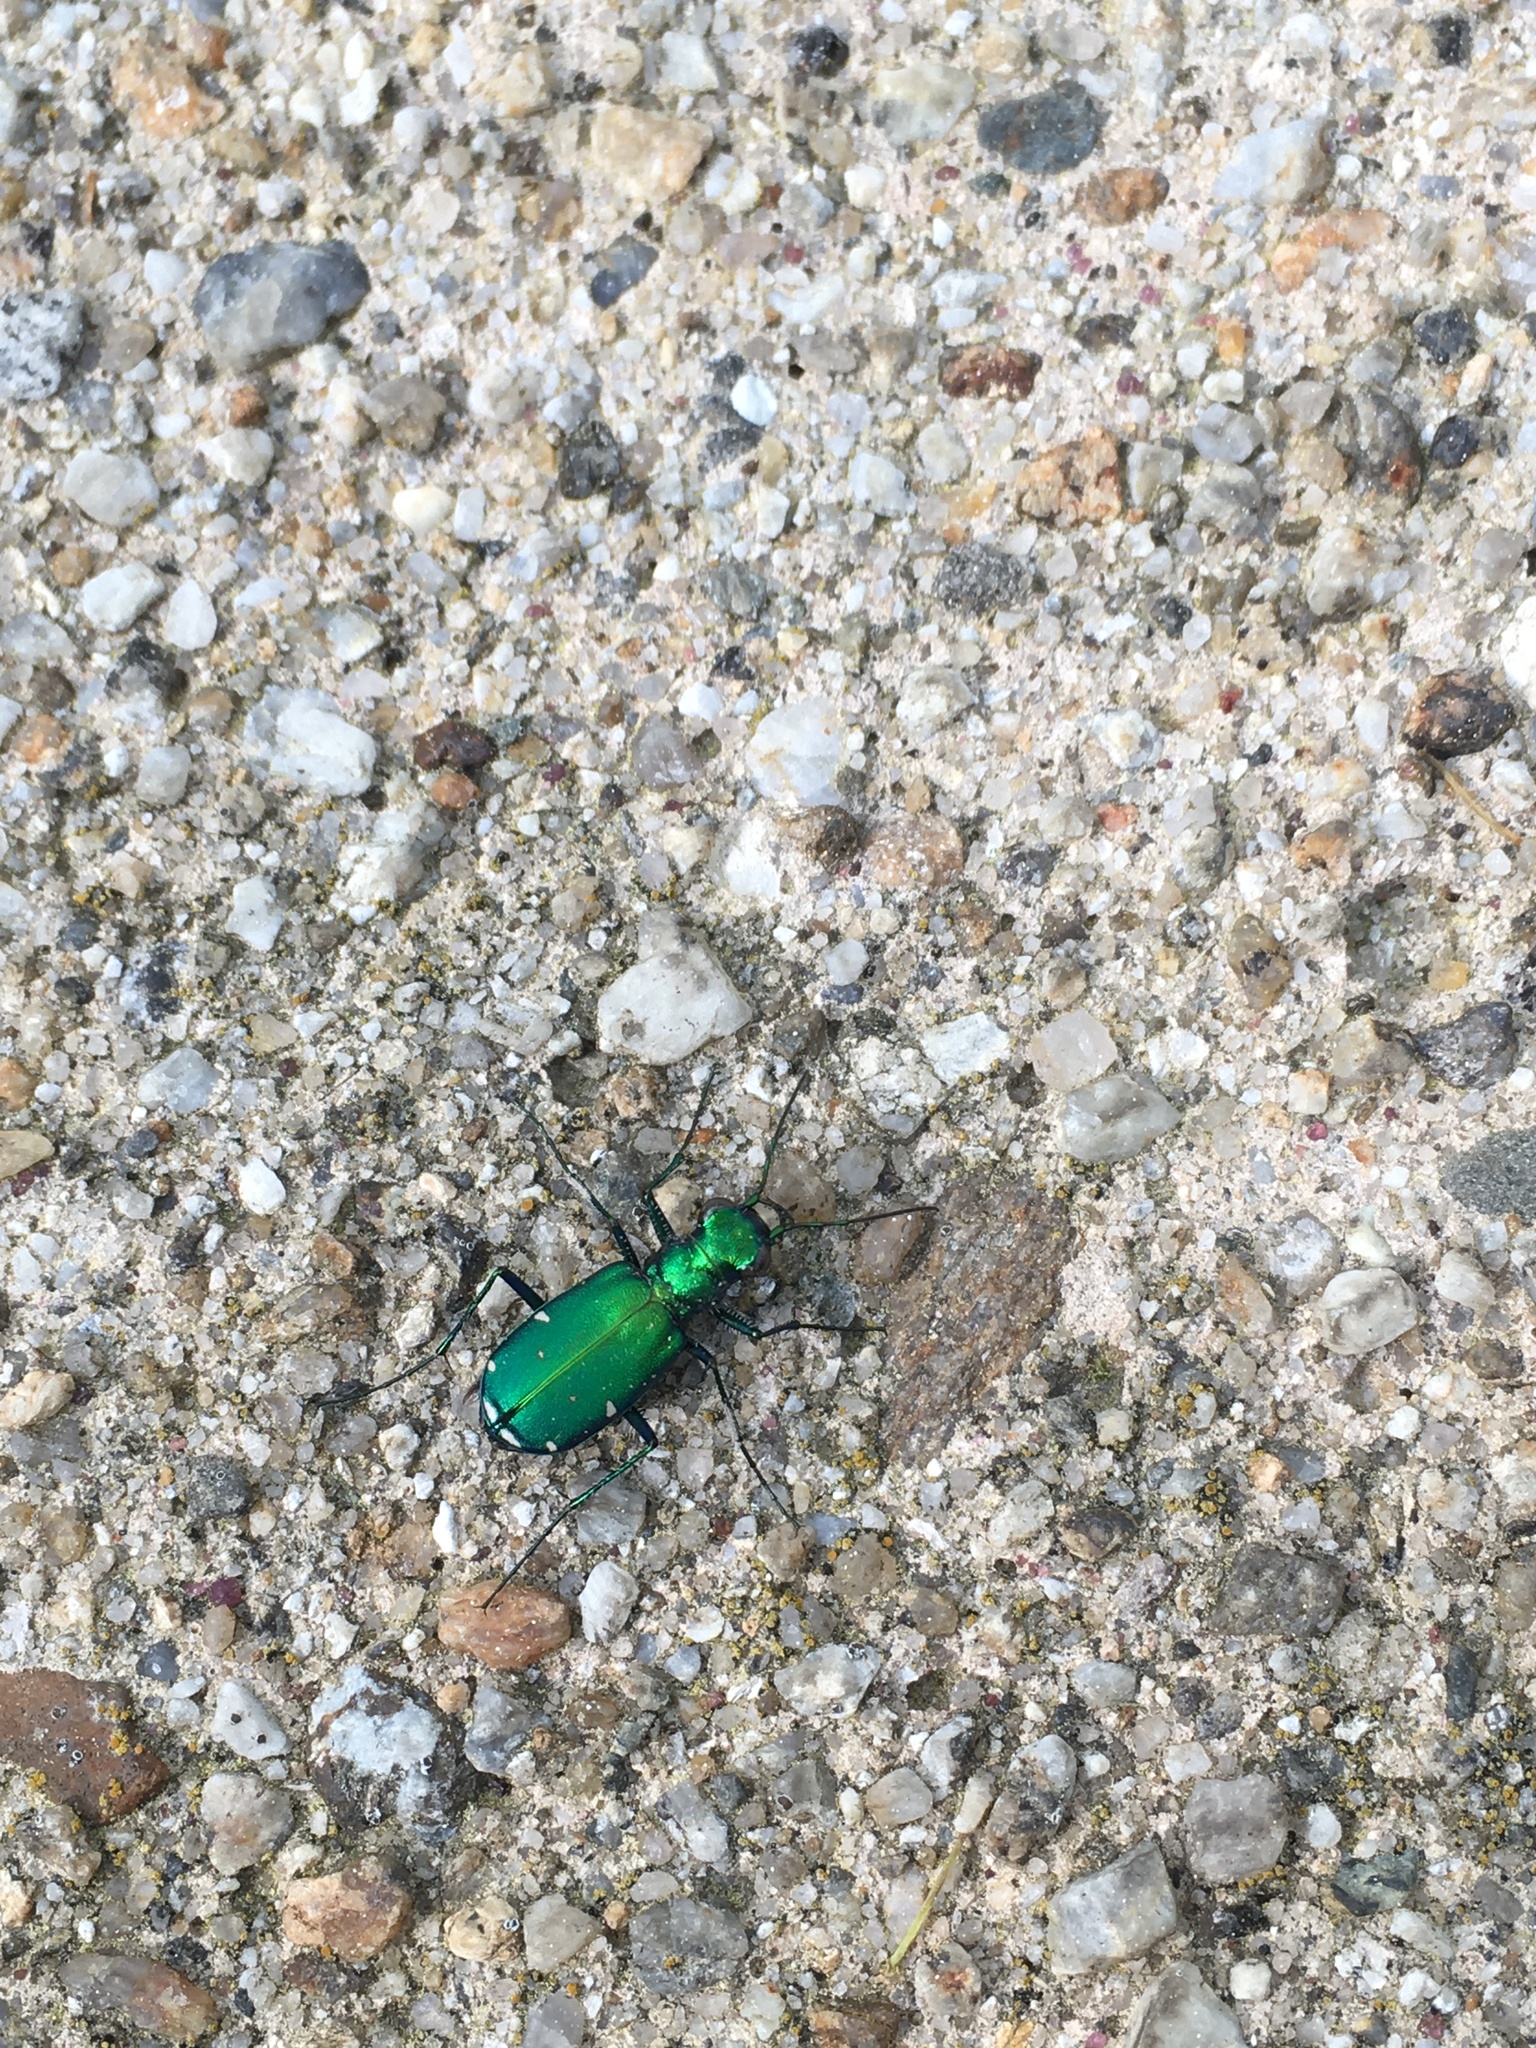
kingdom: Animalia
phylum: Arthropoda
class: Insecta
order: Coleoptera
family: Carabidae
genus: Cicindela
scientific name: Cicindela sexguttata
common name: Six-spotted tiger beetle
